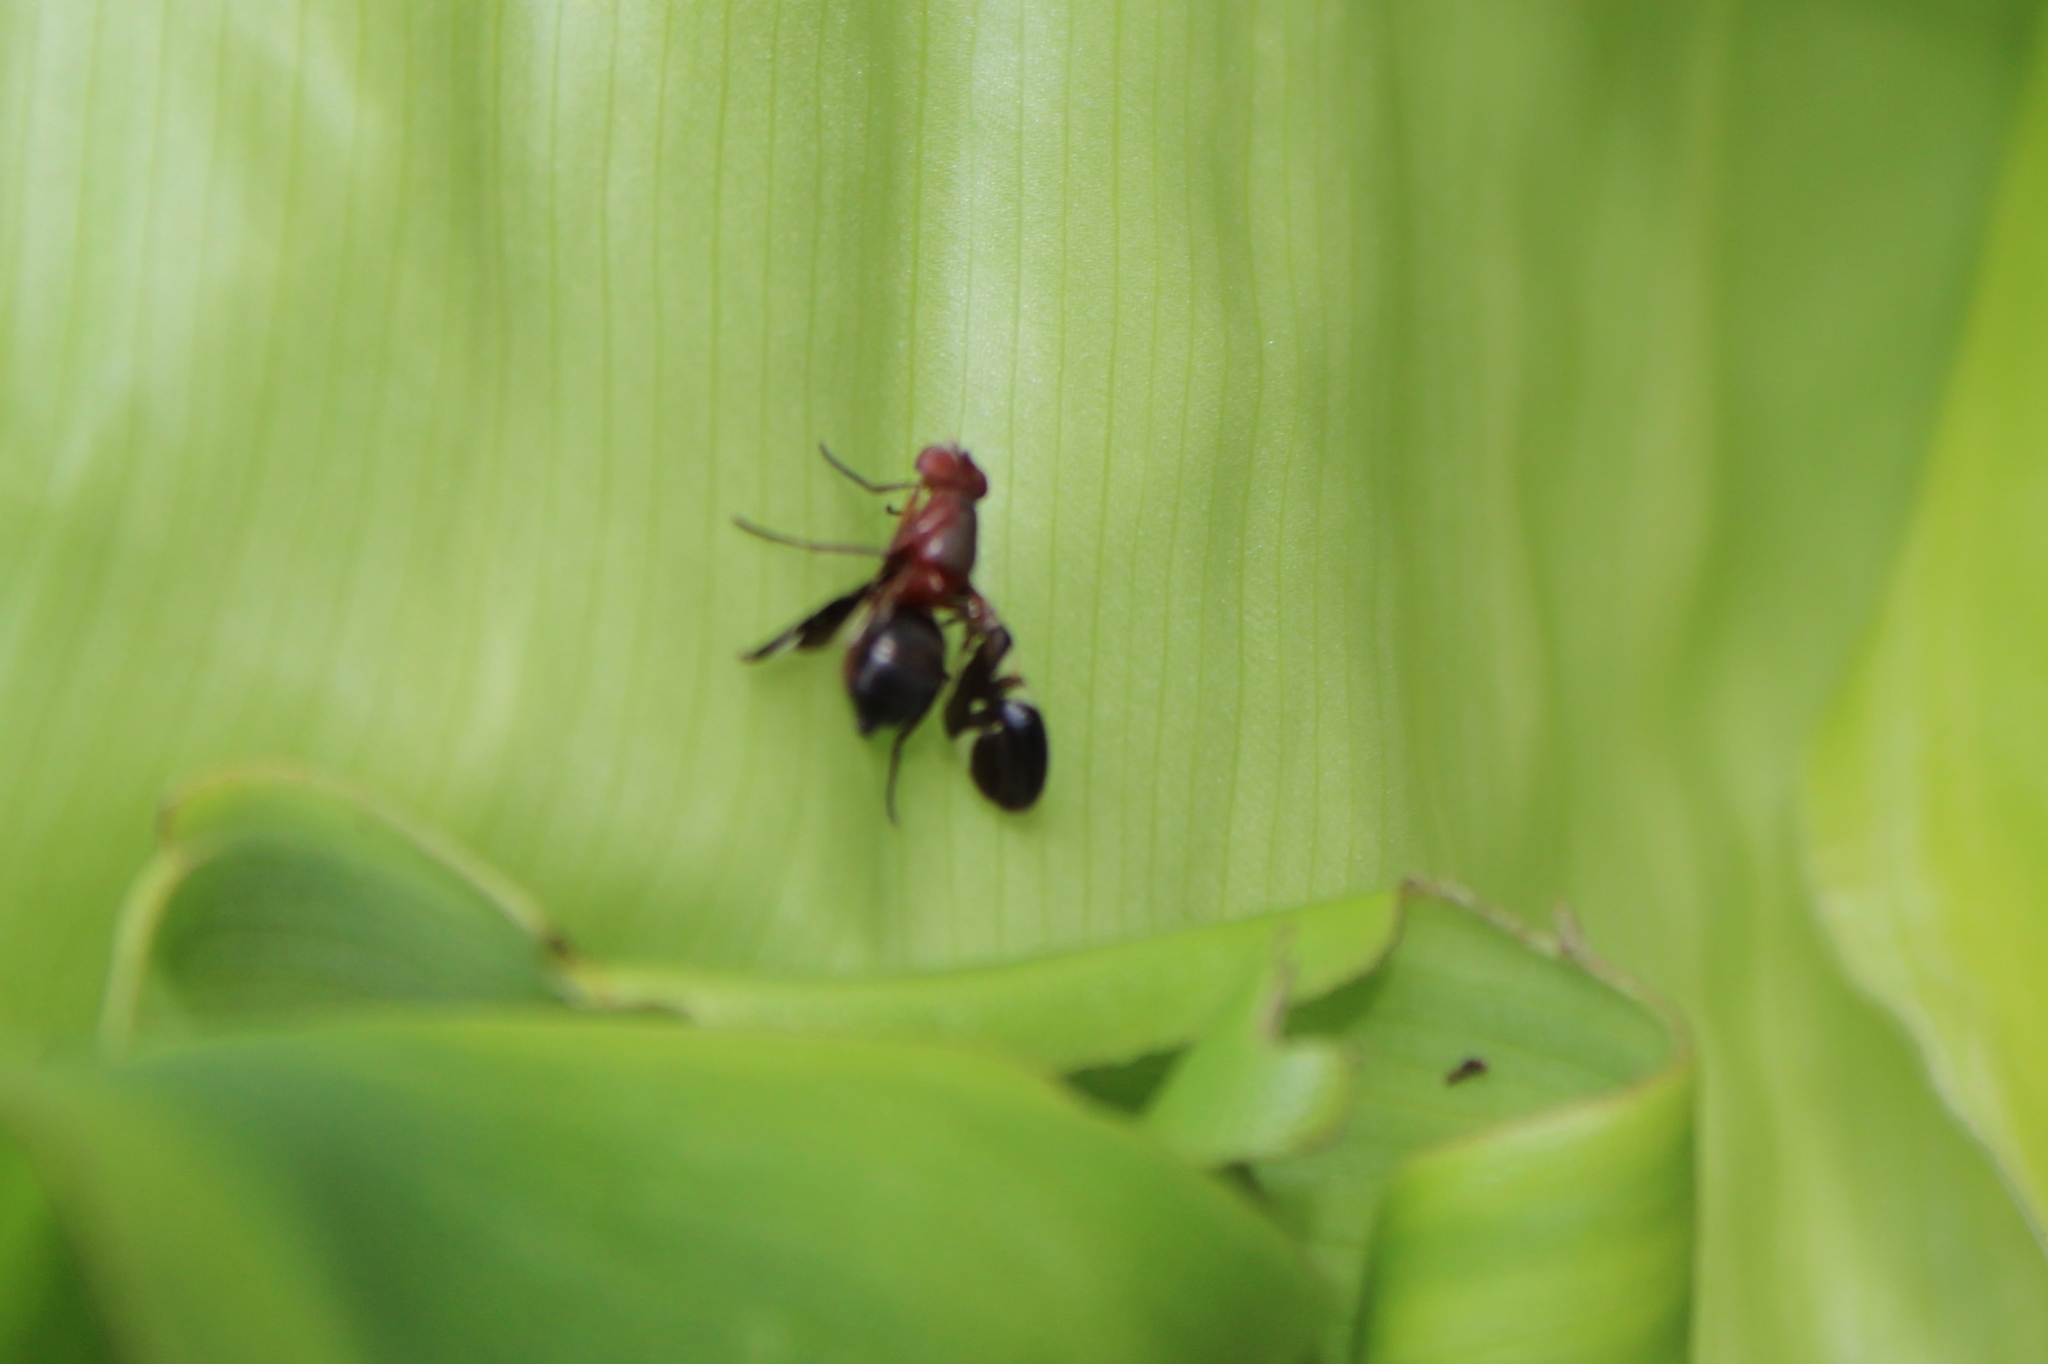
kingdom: Animalia
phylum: Arthropoda
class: Insecta
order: Diptera
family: Ulidiidae
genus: Delphinia
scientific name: Delphinia picta
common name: Common picture-winged fly
